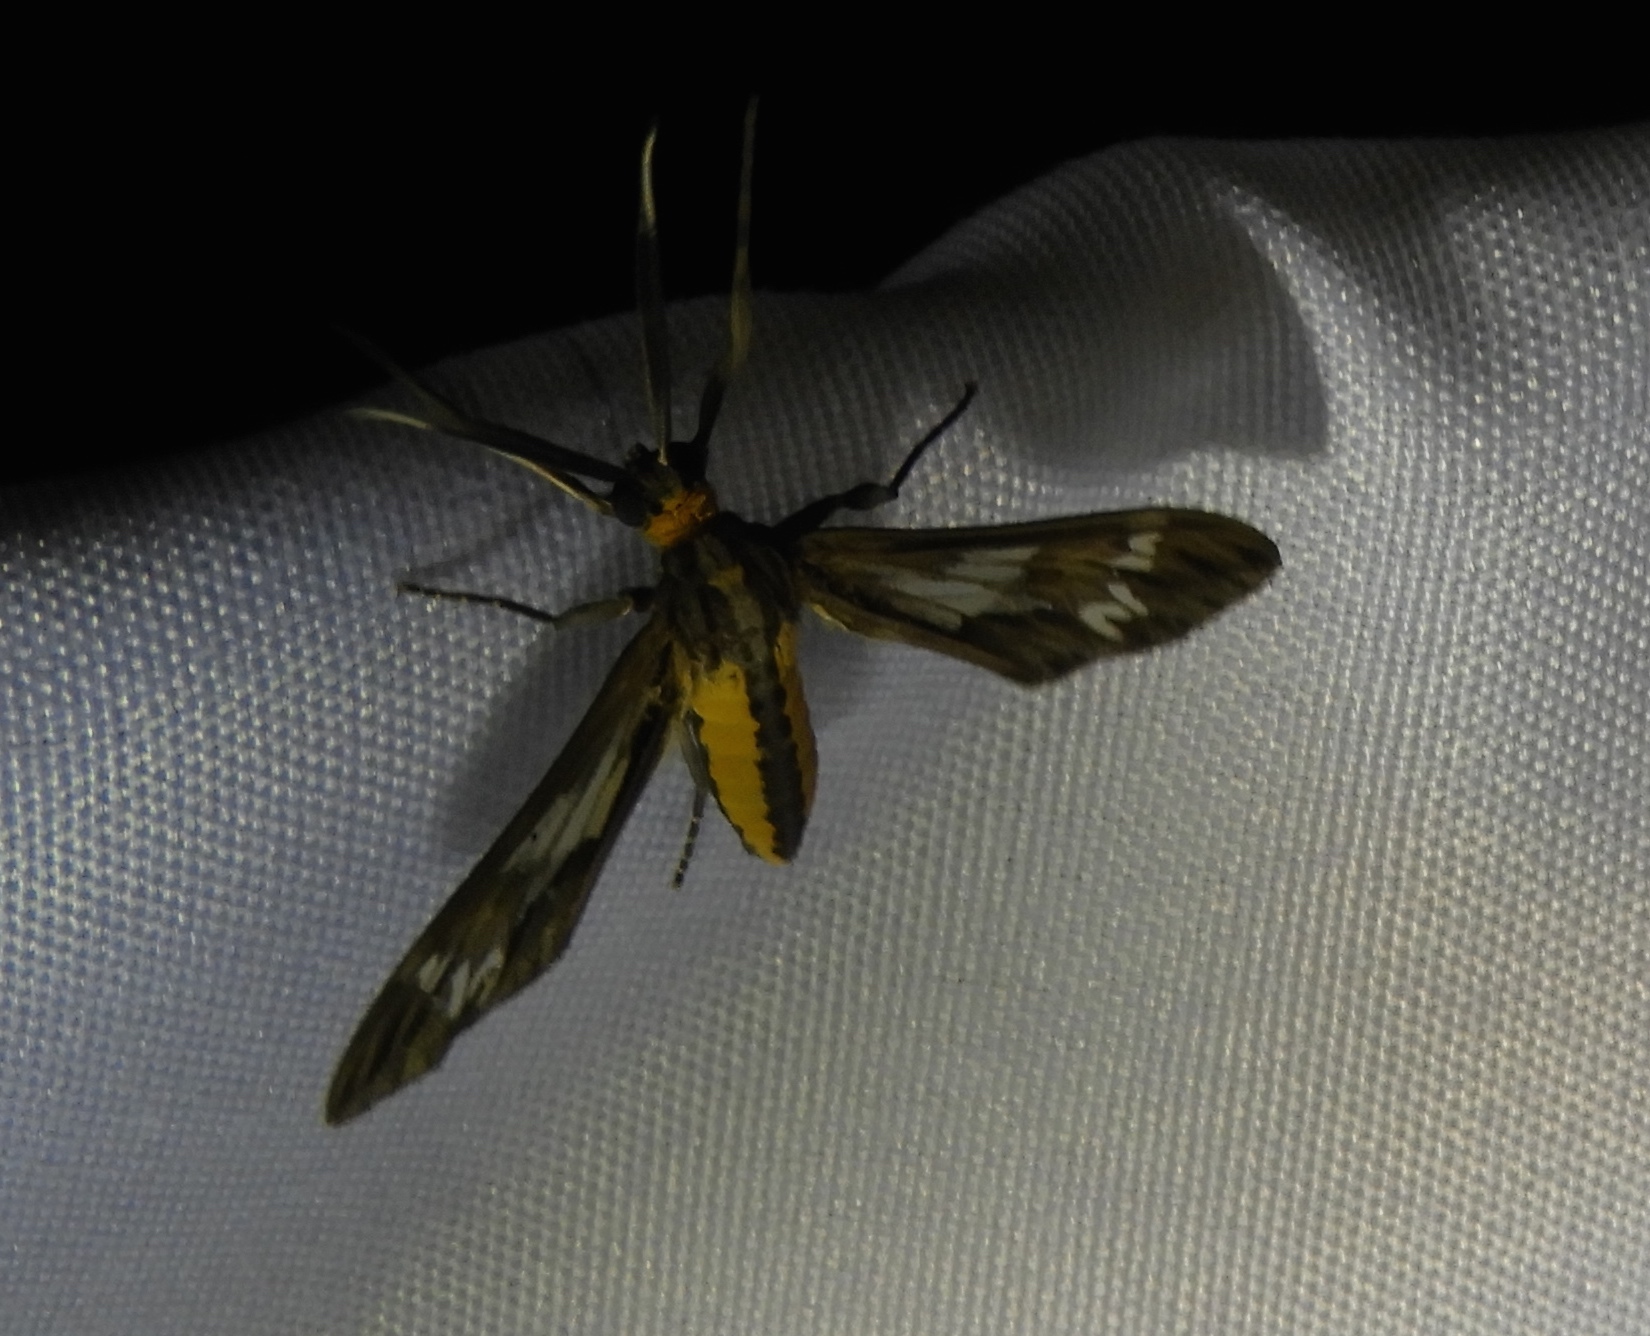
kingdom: Animalia
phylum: Arthropoda
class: Insecta
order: Lepidoptera
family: Erebidae
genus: Psilopleura
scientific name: Psilopleura
